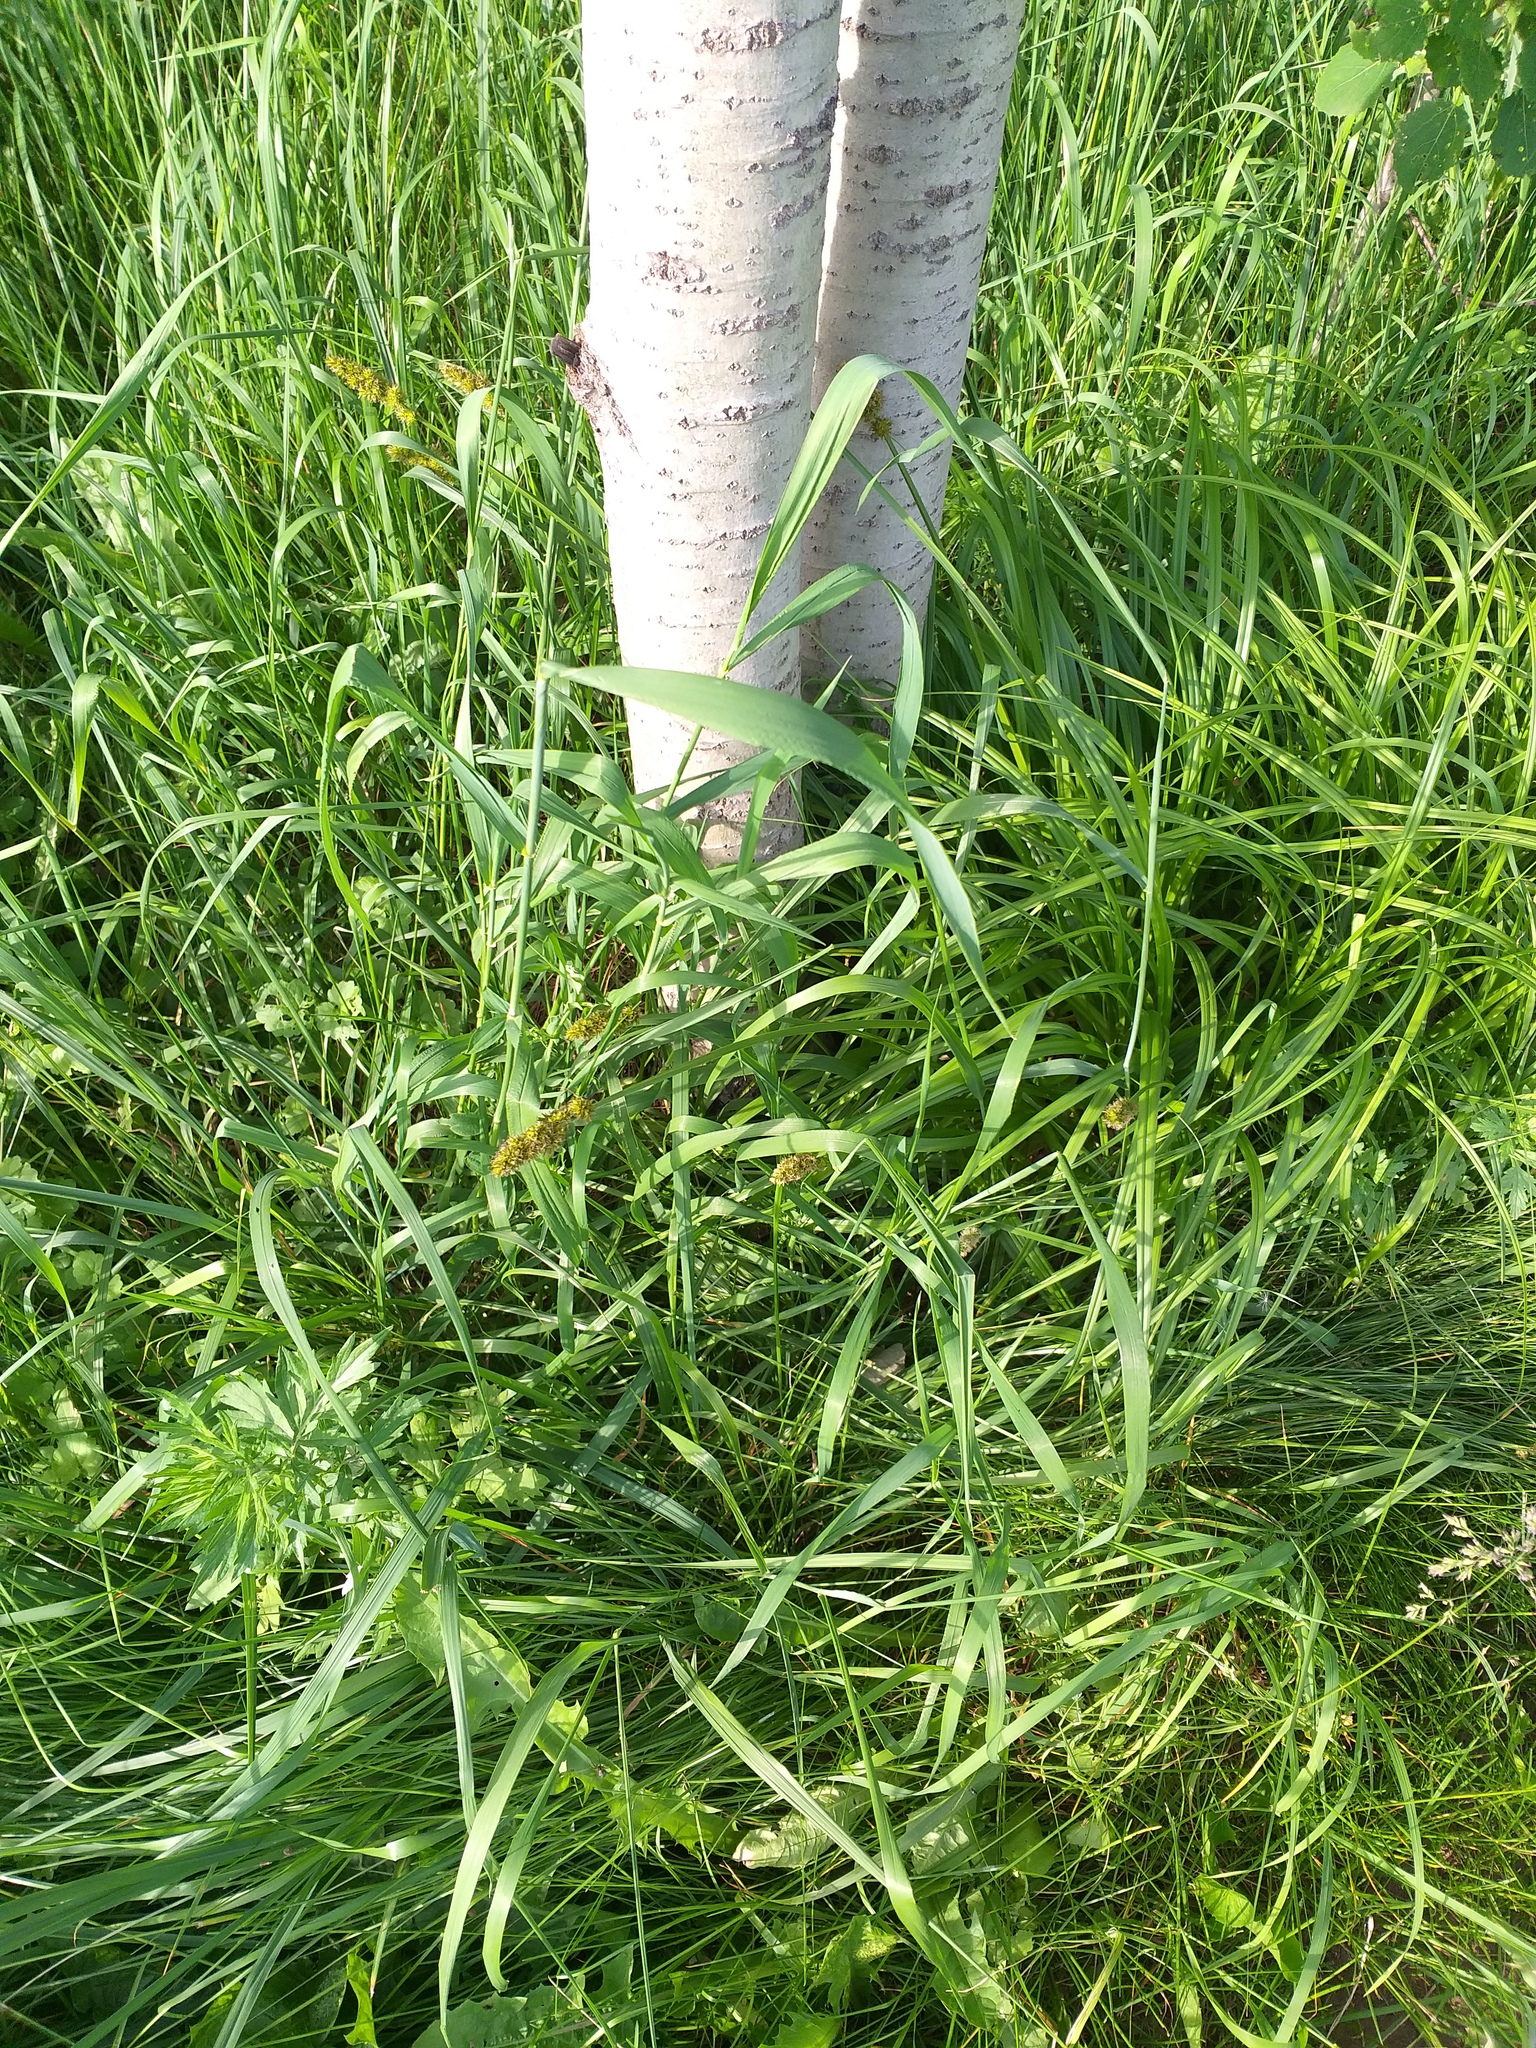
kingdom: Plantae
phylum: Tracheophyta
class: Liliopsida
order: Poales
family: Cyperaceae
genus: Carex
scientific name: Carex vulpina
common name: True fox-sedge
